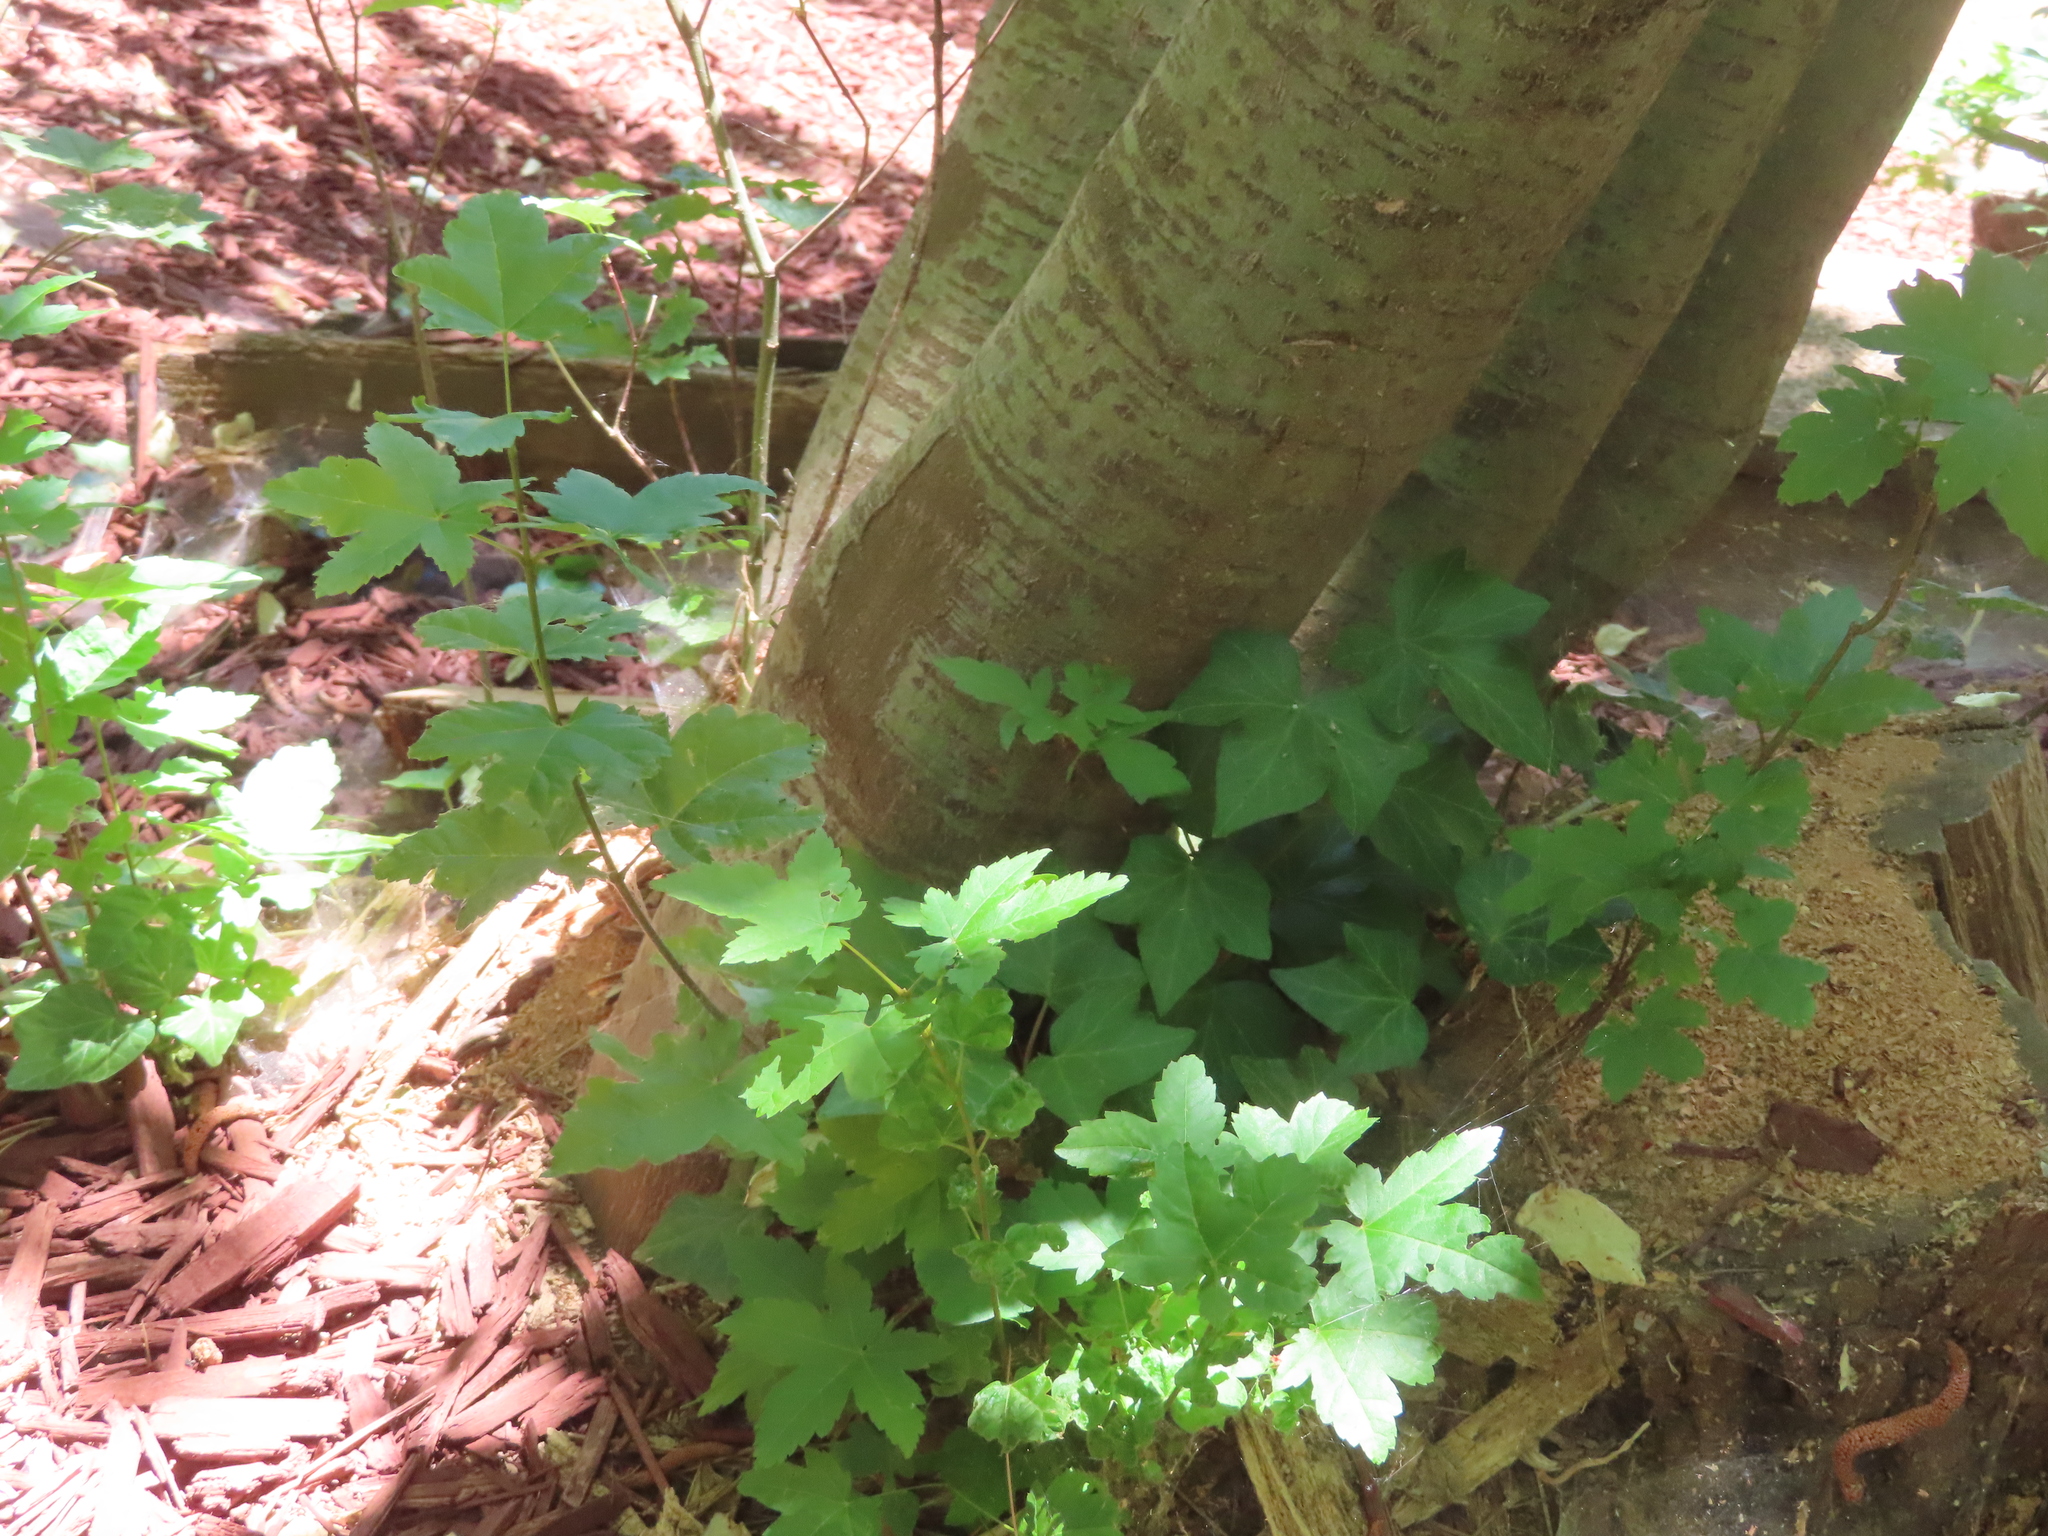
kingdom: Plantae
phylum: Tracheophyta
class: Magnoliopsida
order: Sapindales
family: Sapindaceae
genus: Acer
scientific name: Acer macrophyllum
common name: Oregon maple
